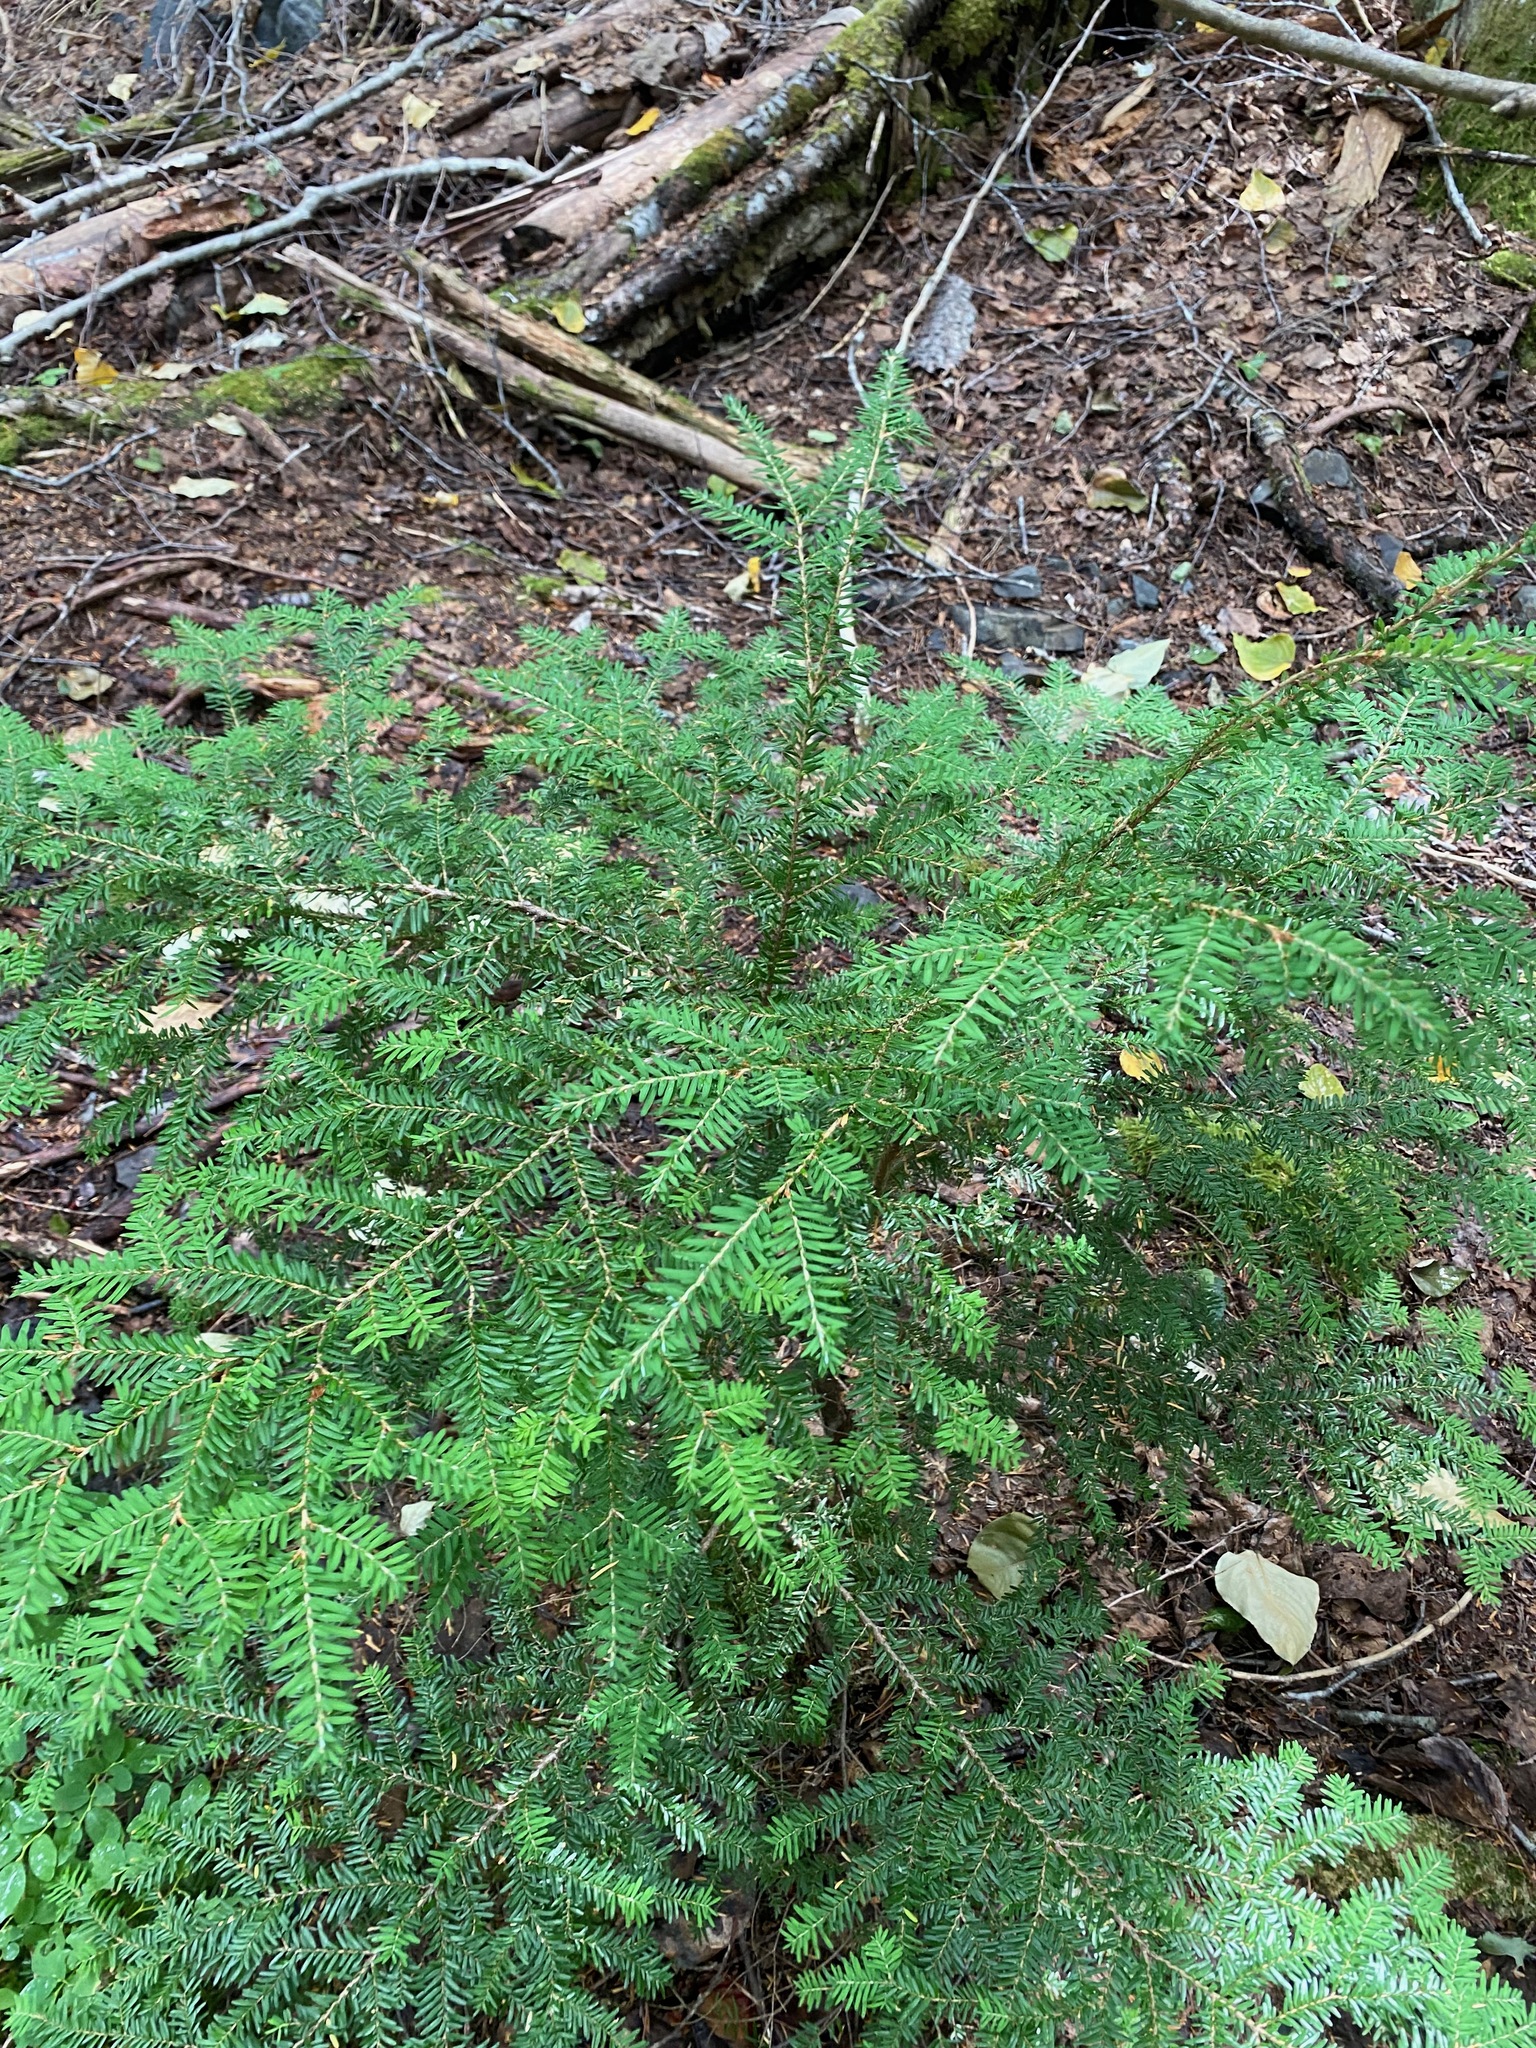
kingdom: Plantae
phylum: Tracheophyta
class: Pinopsida
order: Pinales
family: Pinaceae
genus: Tsuga
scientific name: Tsuga heterophylla
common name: Western hemlock
